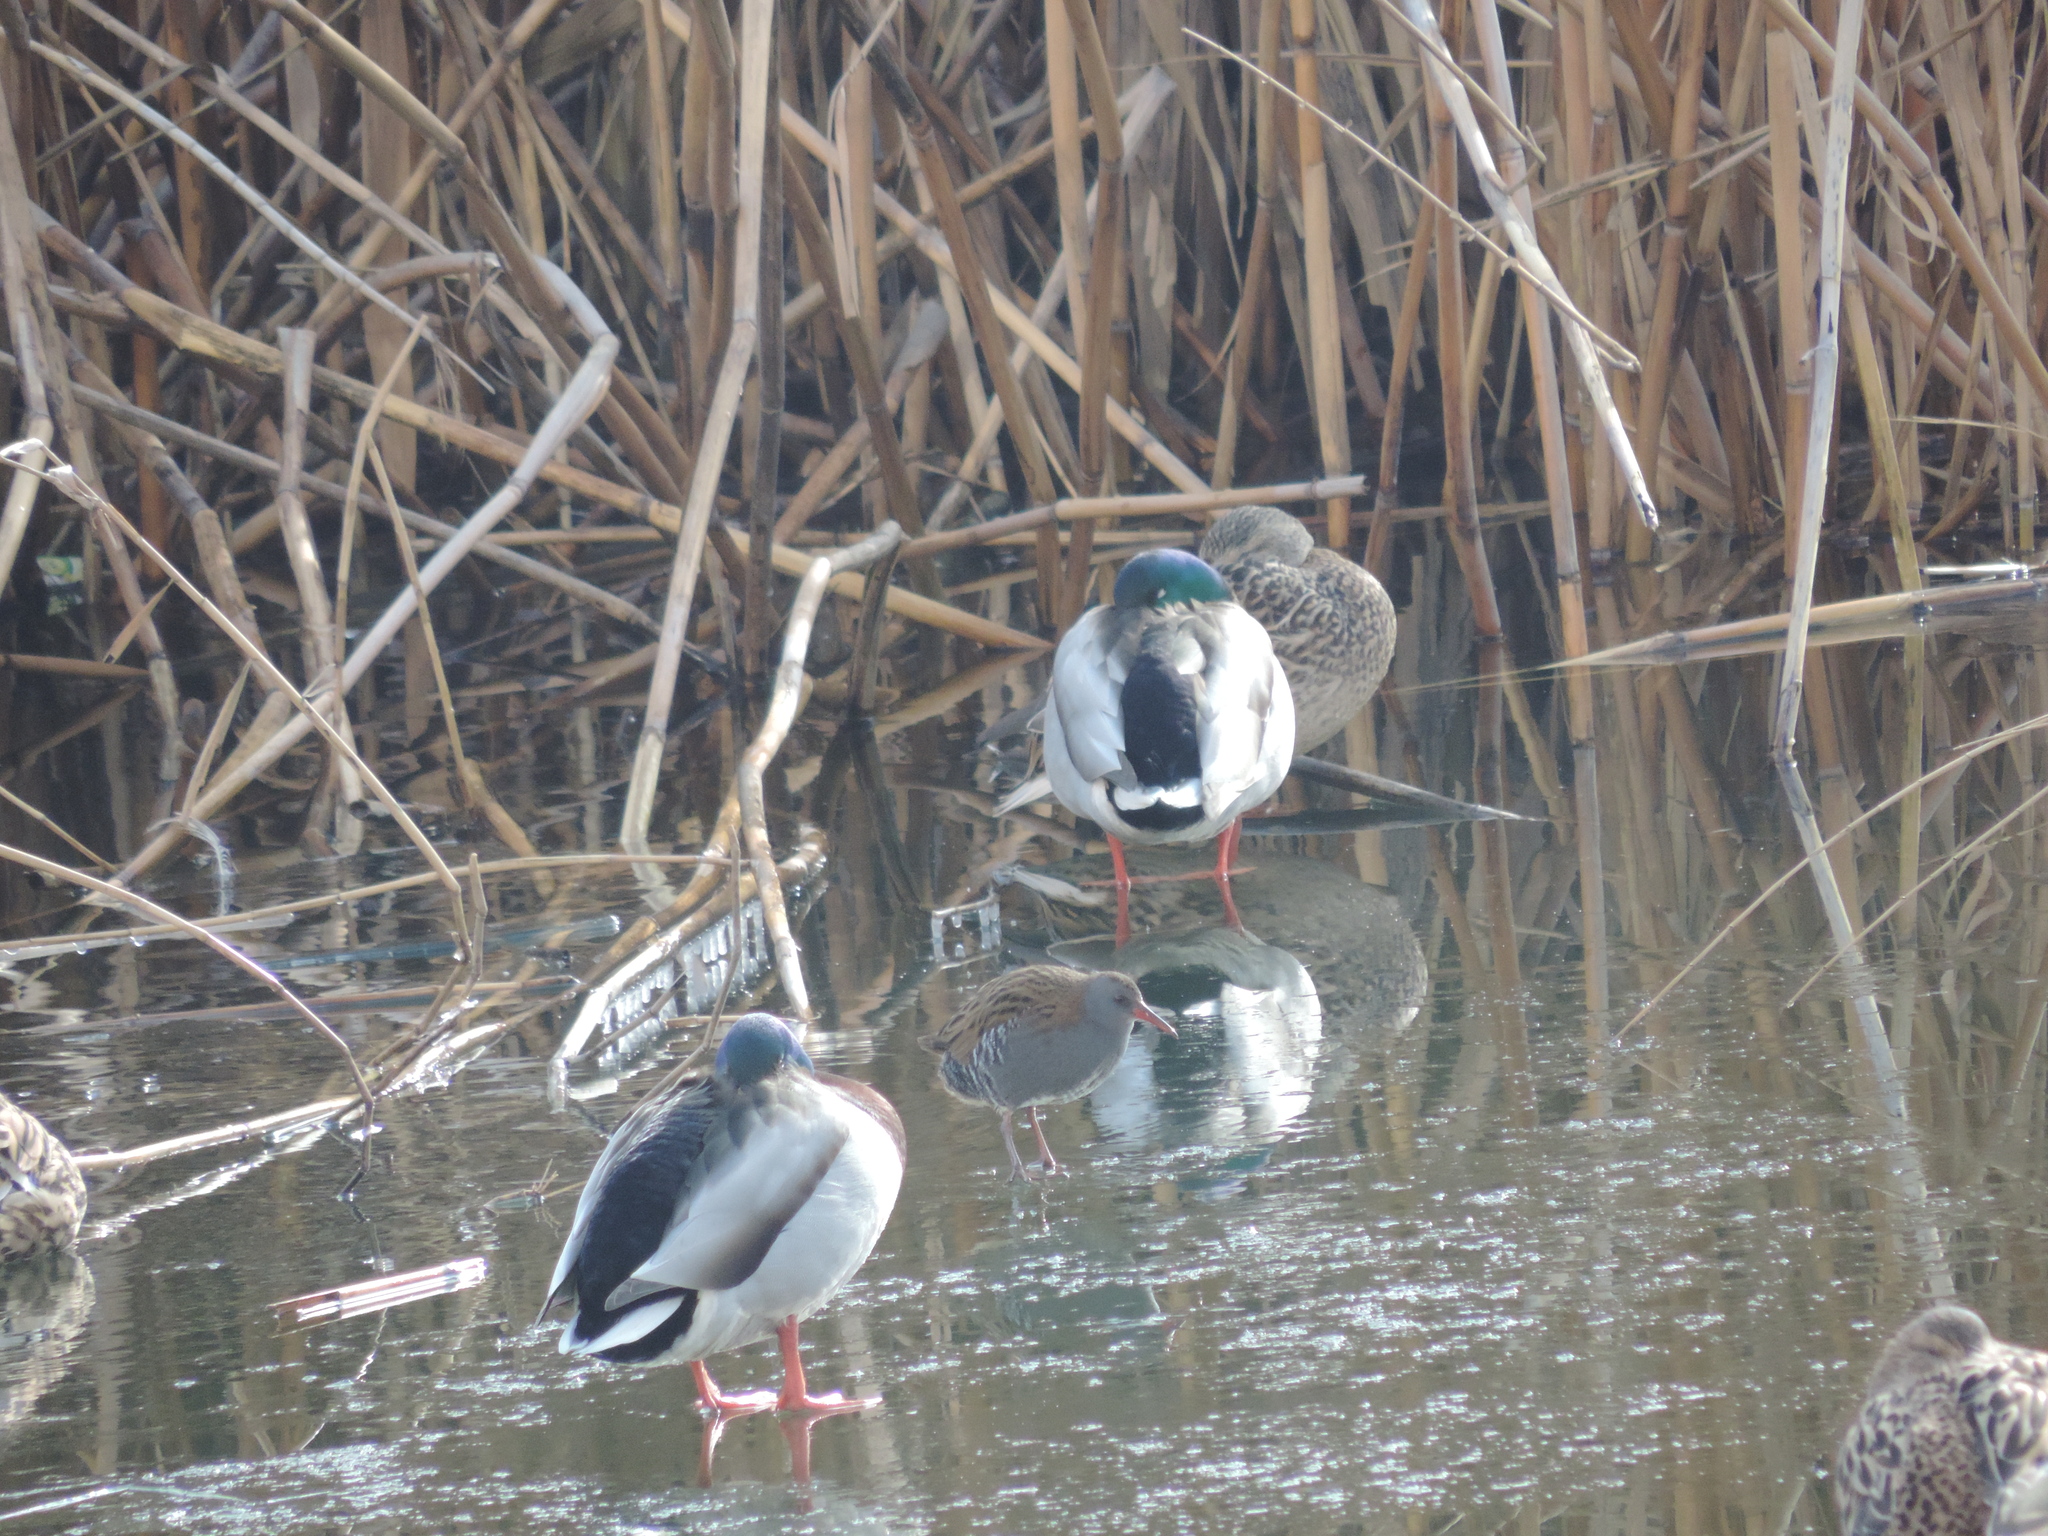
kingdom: Animalia
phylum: Chordata
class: Aves
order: Gruiformes
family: Rallidae
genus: Rallus
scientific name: Rallus aquaticus
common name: Water rail
